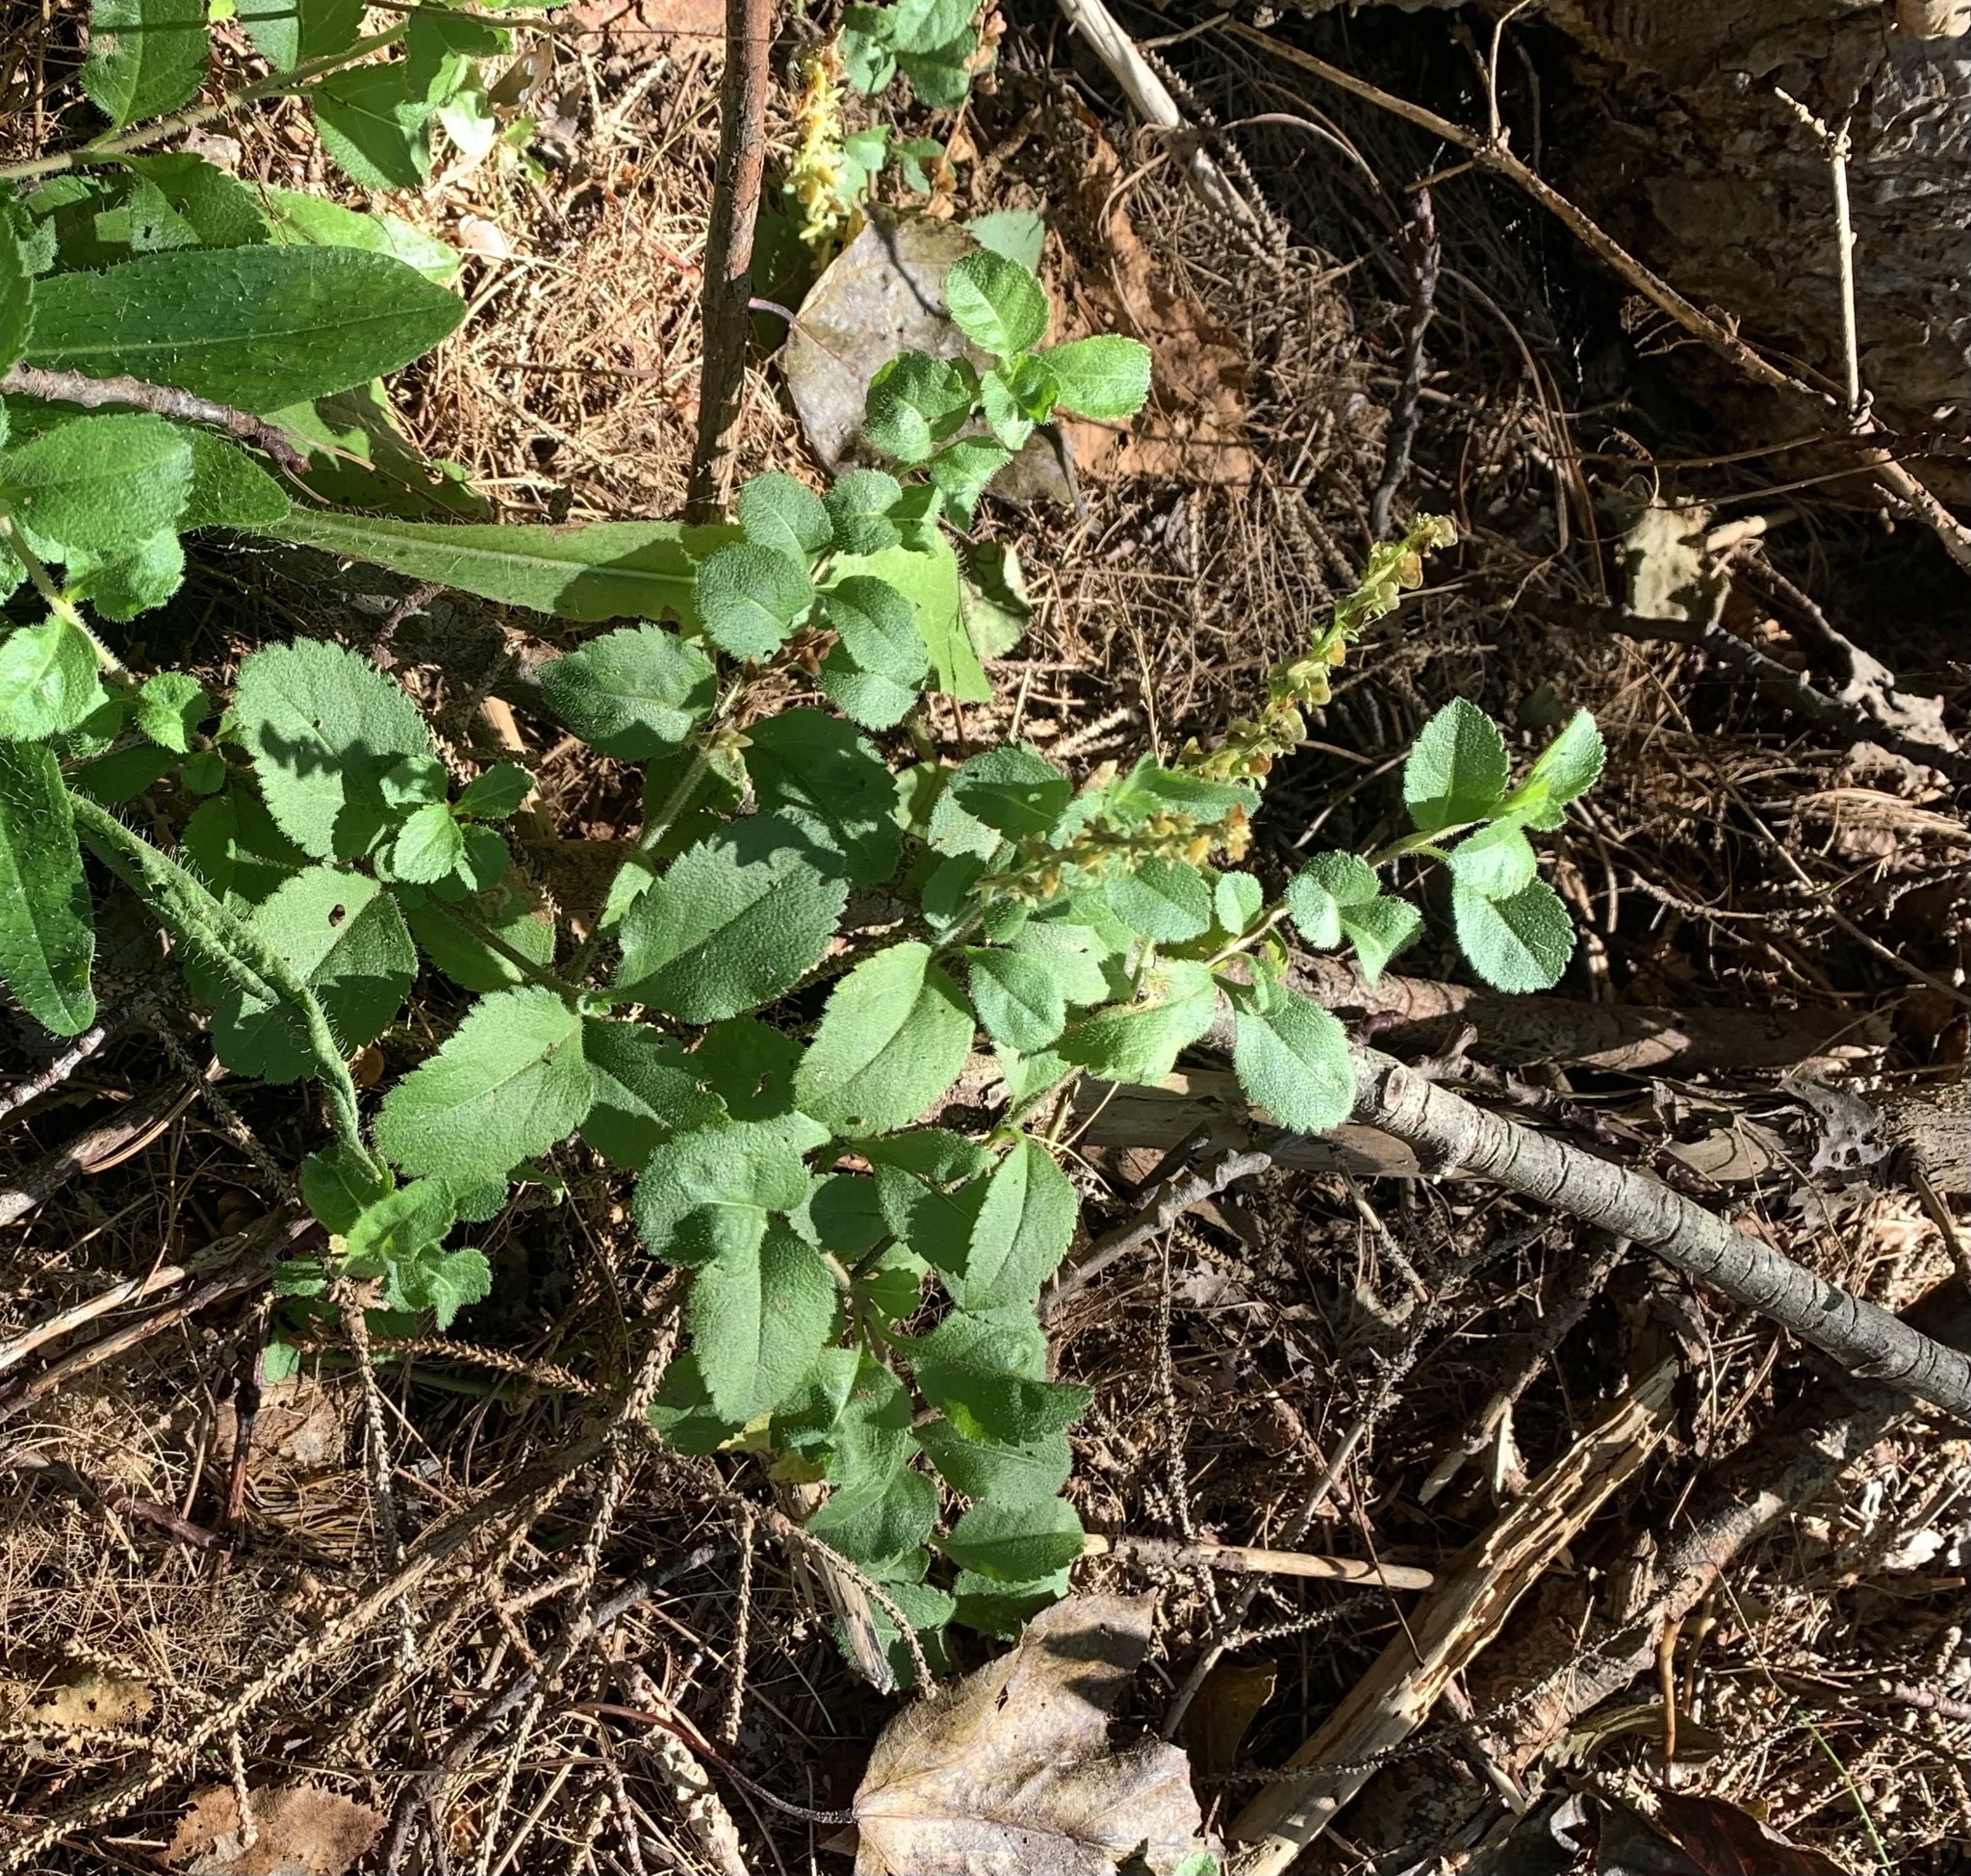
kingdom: Plantae
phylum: Tracheophyta
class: Magnoliopsida
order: Lamiales
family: Plantaginaceae
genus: Veronica
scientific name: Veronica officinalis
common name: Common speedwell
